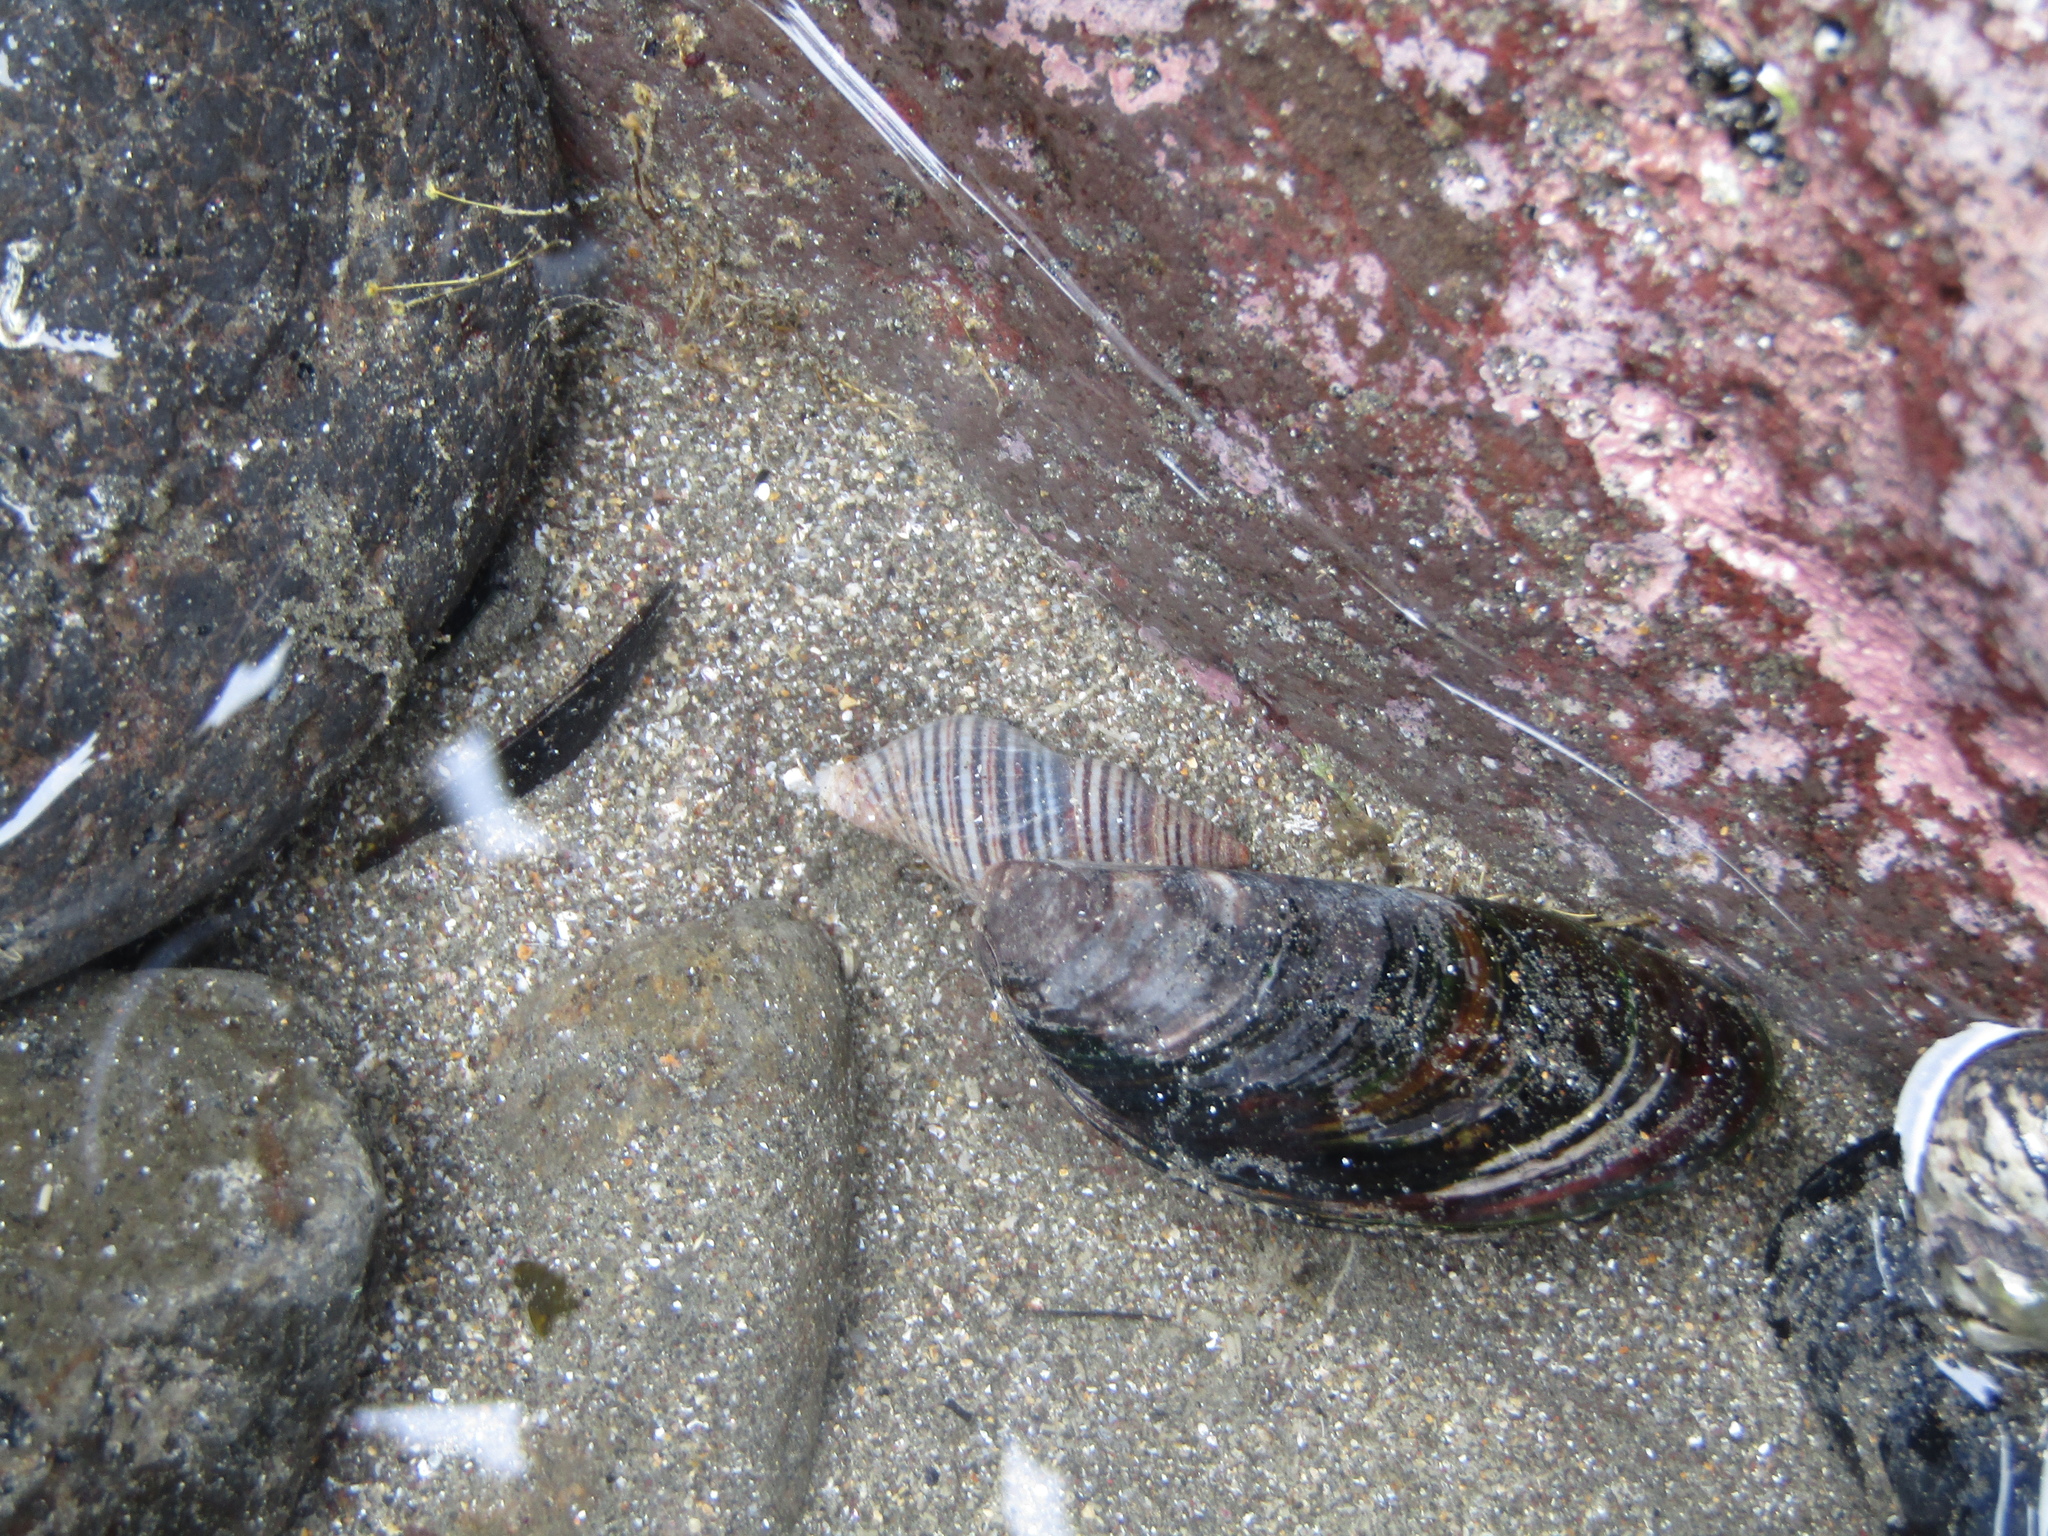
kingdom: Animalia
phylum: Mollusca
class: Gastropoda
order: Neogastropoda
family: Tudiclidae
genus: Buccinulum
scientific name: Buccinulum littorinoides
